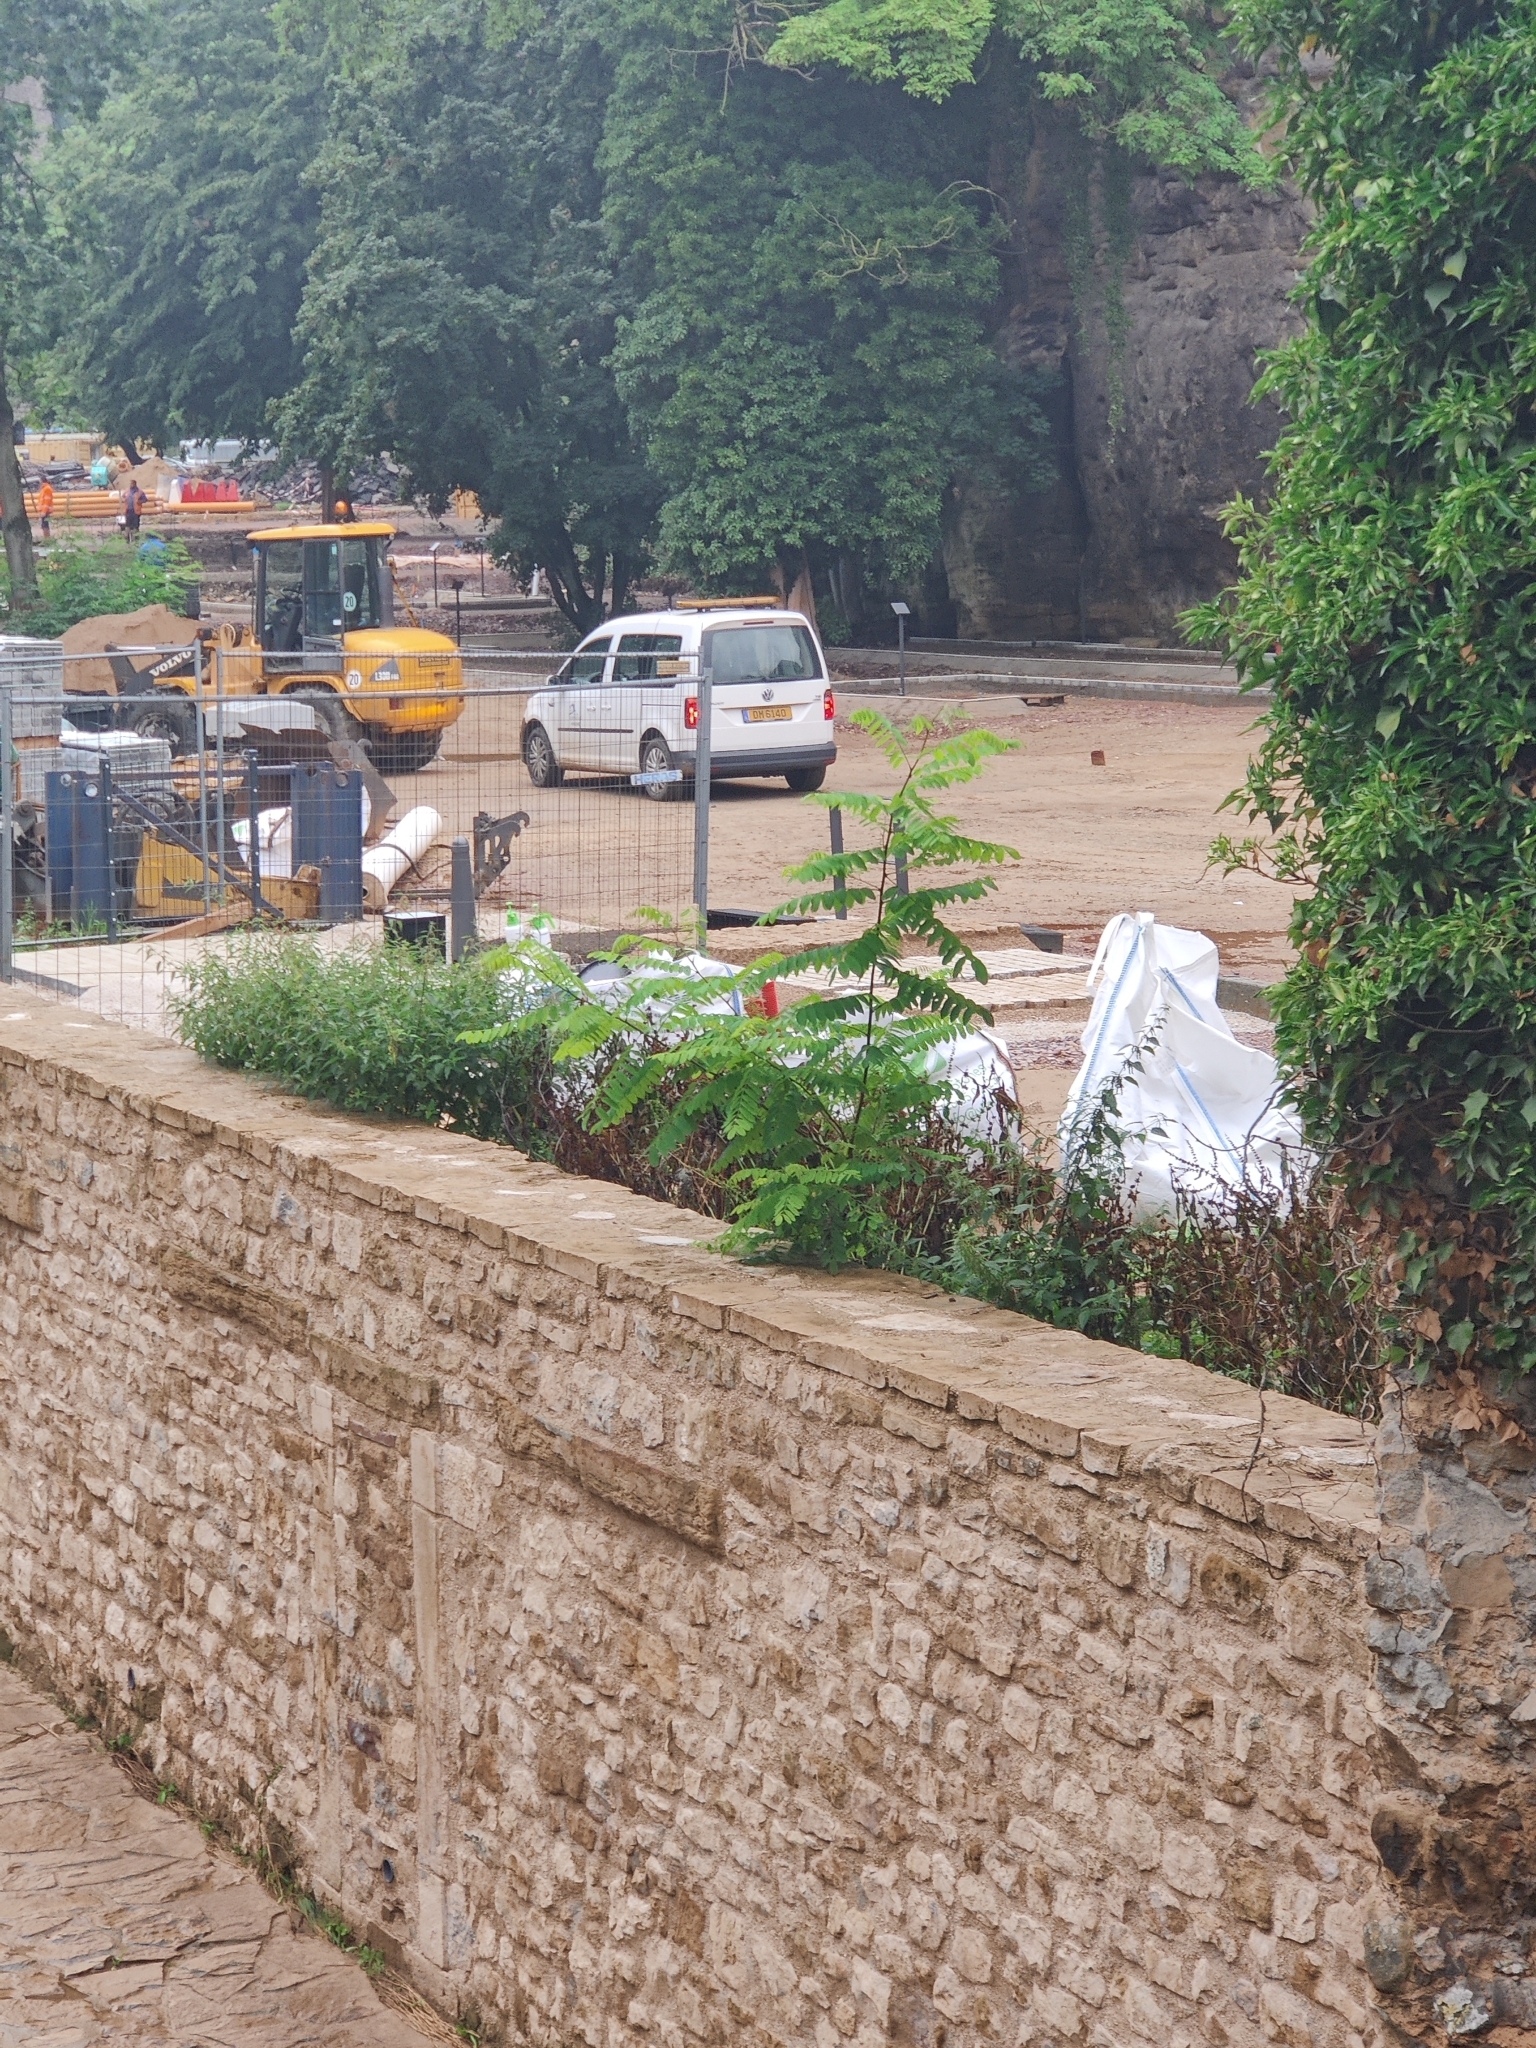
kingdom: Plantae
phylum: Tracheophyta
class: Magnoliopsida
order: Fabales
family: Fabaceae
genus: Robinia
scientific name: Robinia pseudoacacia
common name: Black locust
